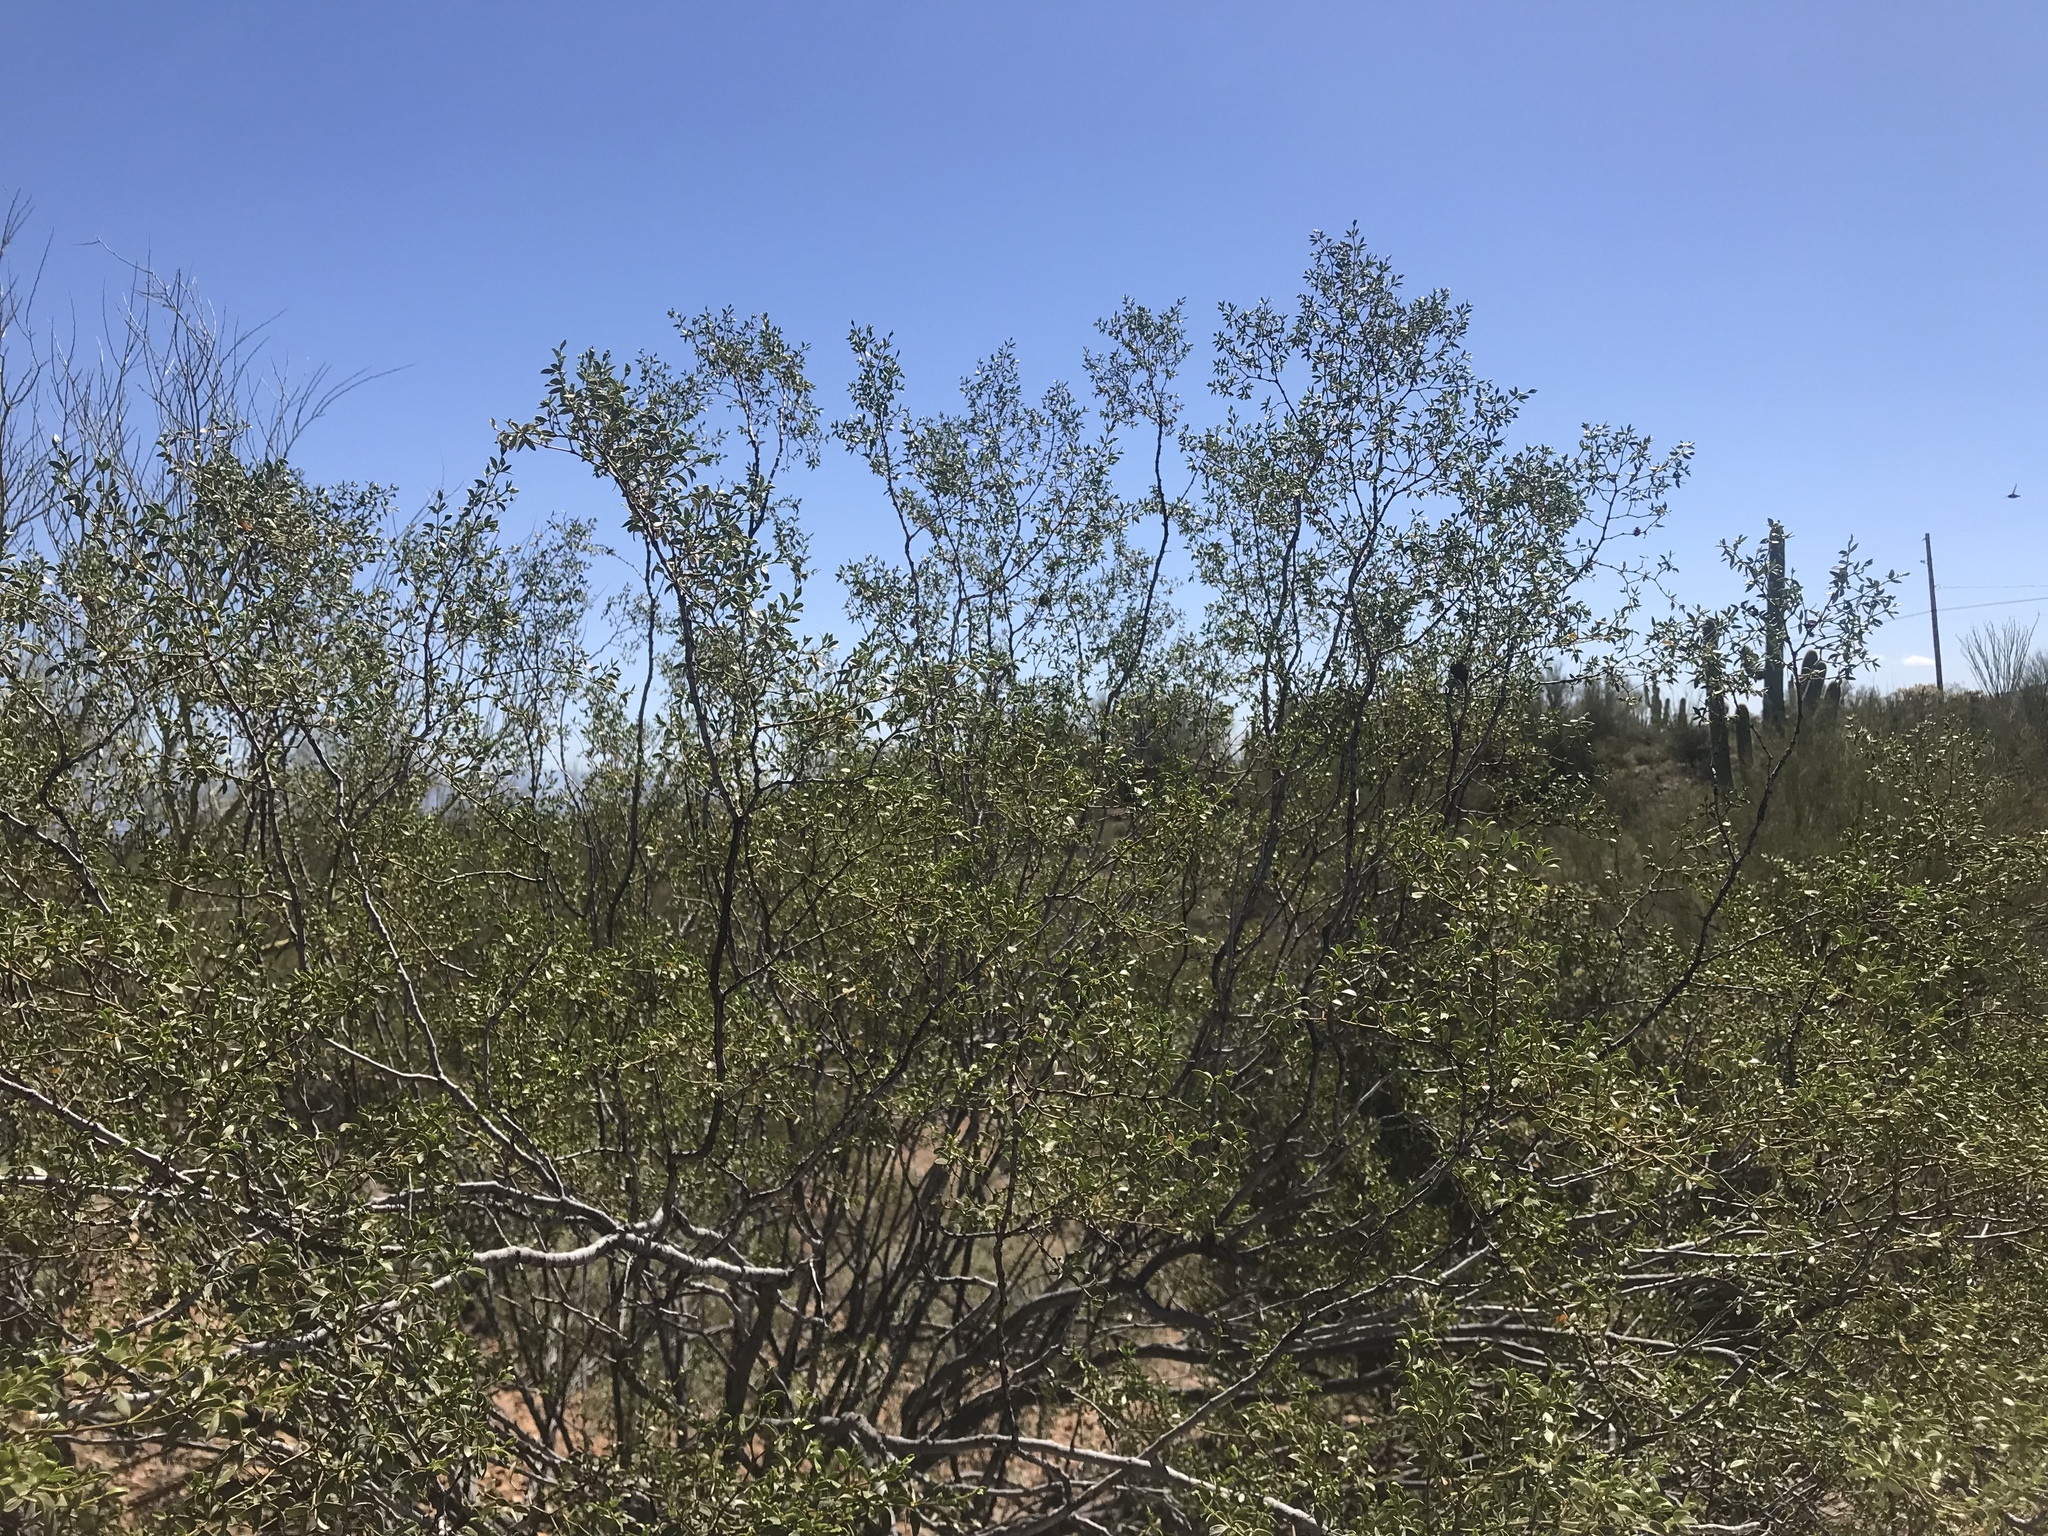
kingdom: Plantae
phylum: Tracheophyta
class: Magnoliopsida
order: Zygophyllales
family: Zygophyllaceae
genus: Larrea
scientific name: Larrea tridentata
